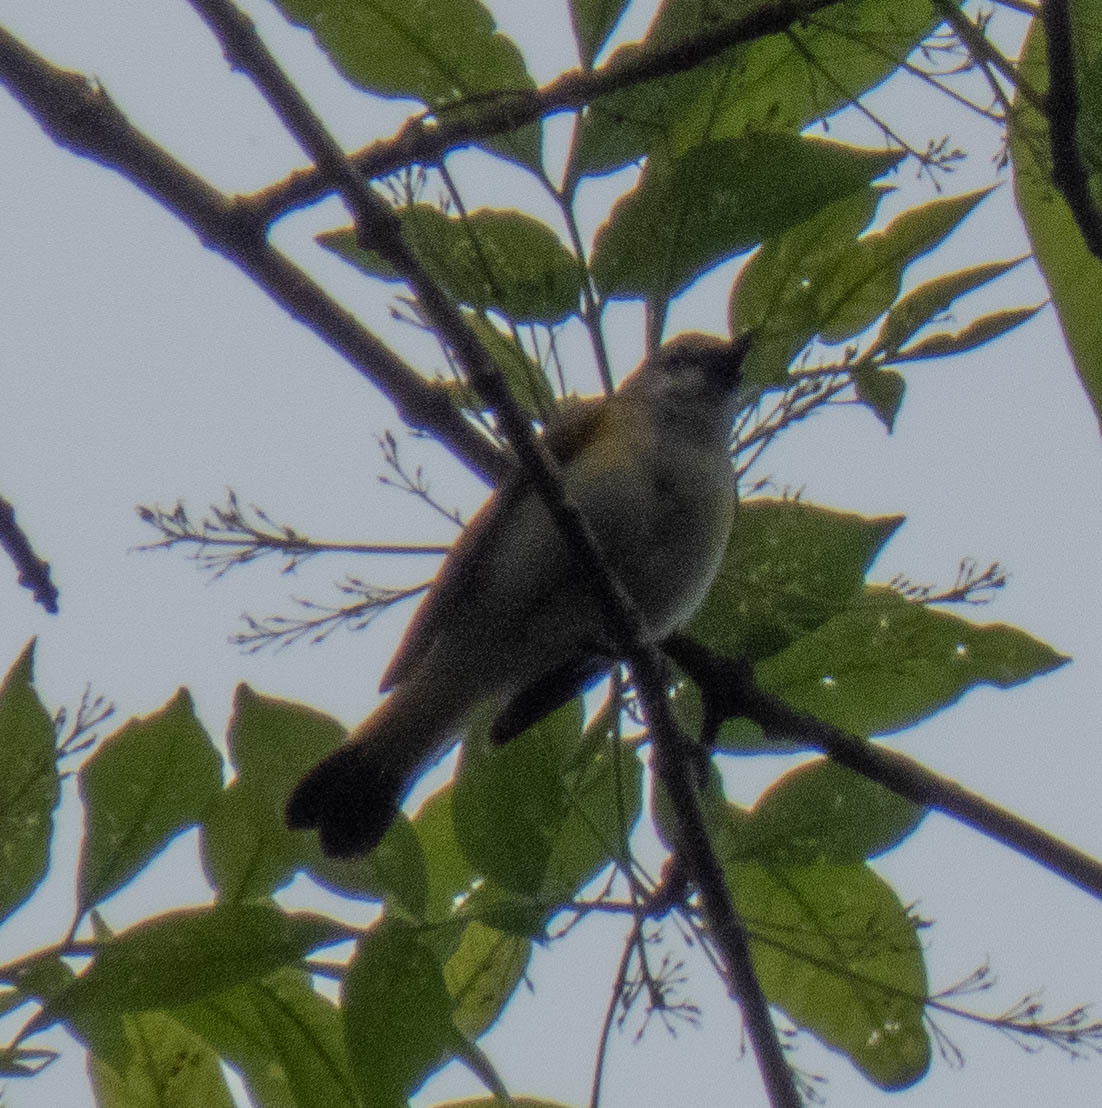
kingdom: Animalia
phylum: Chordata
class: Aves
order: Passeriformes
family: Parulidae
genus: Setophaga
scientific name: Setophaga ruticilla
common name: American redstart
